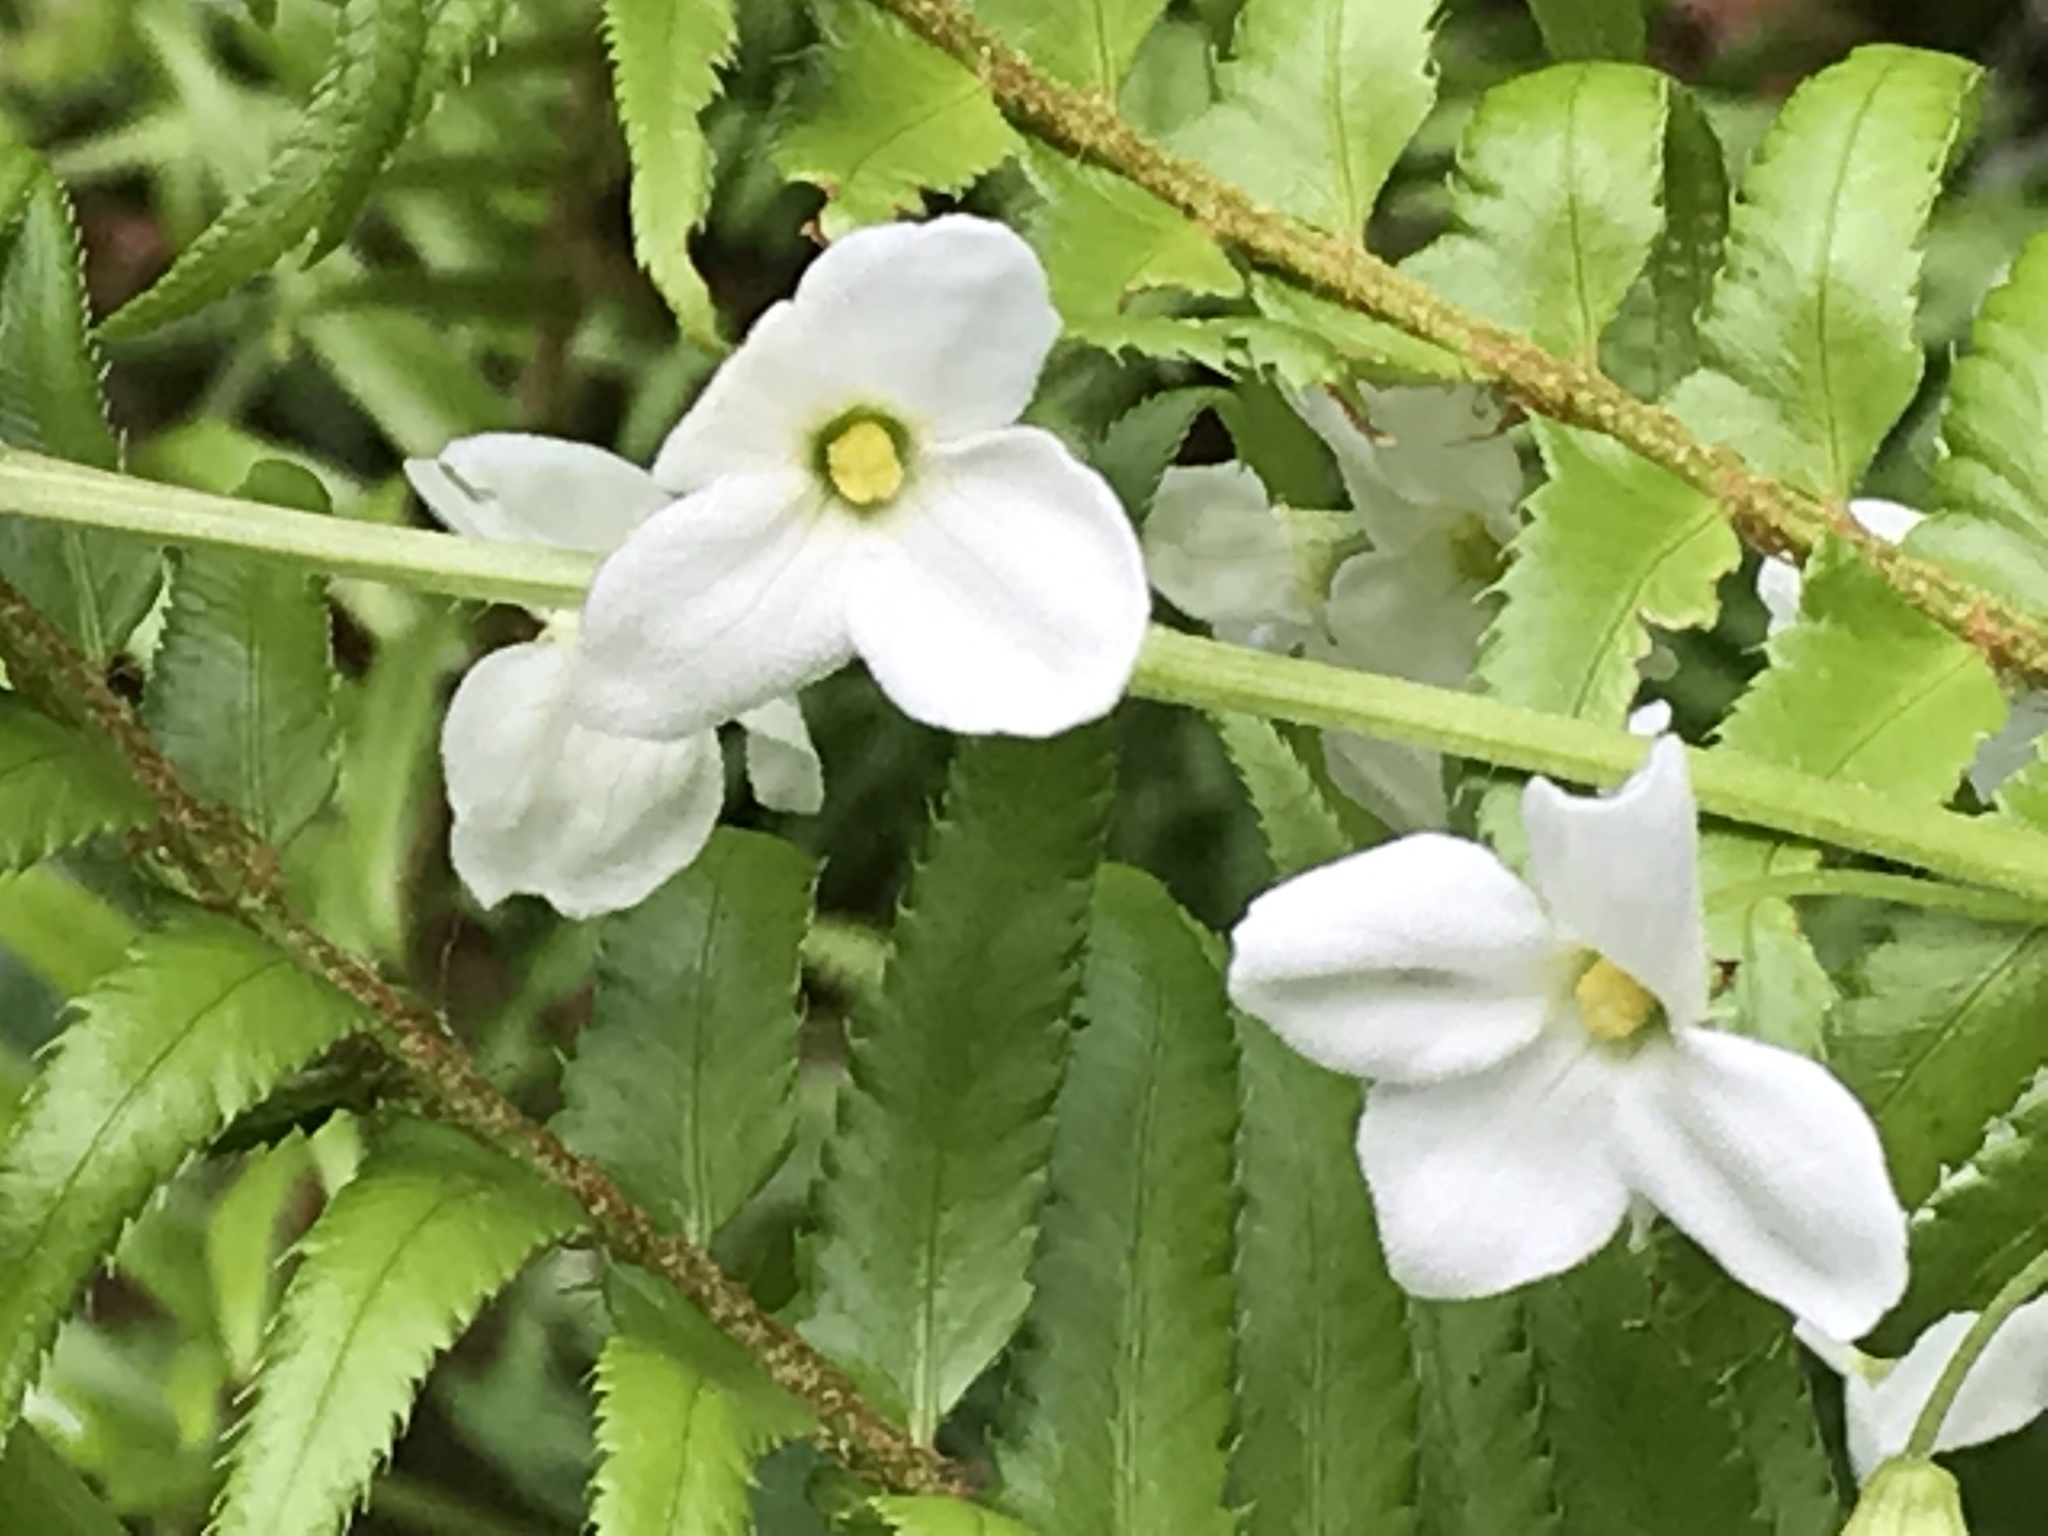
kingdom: Plantae
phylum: Tracheophyta
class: Magnoliopsida
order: Cucurbitales
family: Cucurbitaceae
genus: Marah
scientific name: Marah oregana
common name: Coastal manroot
